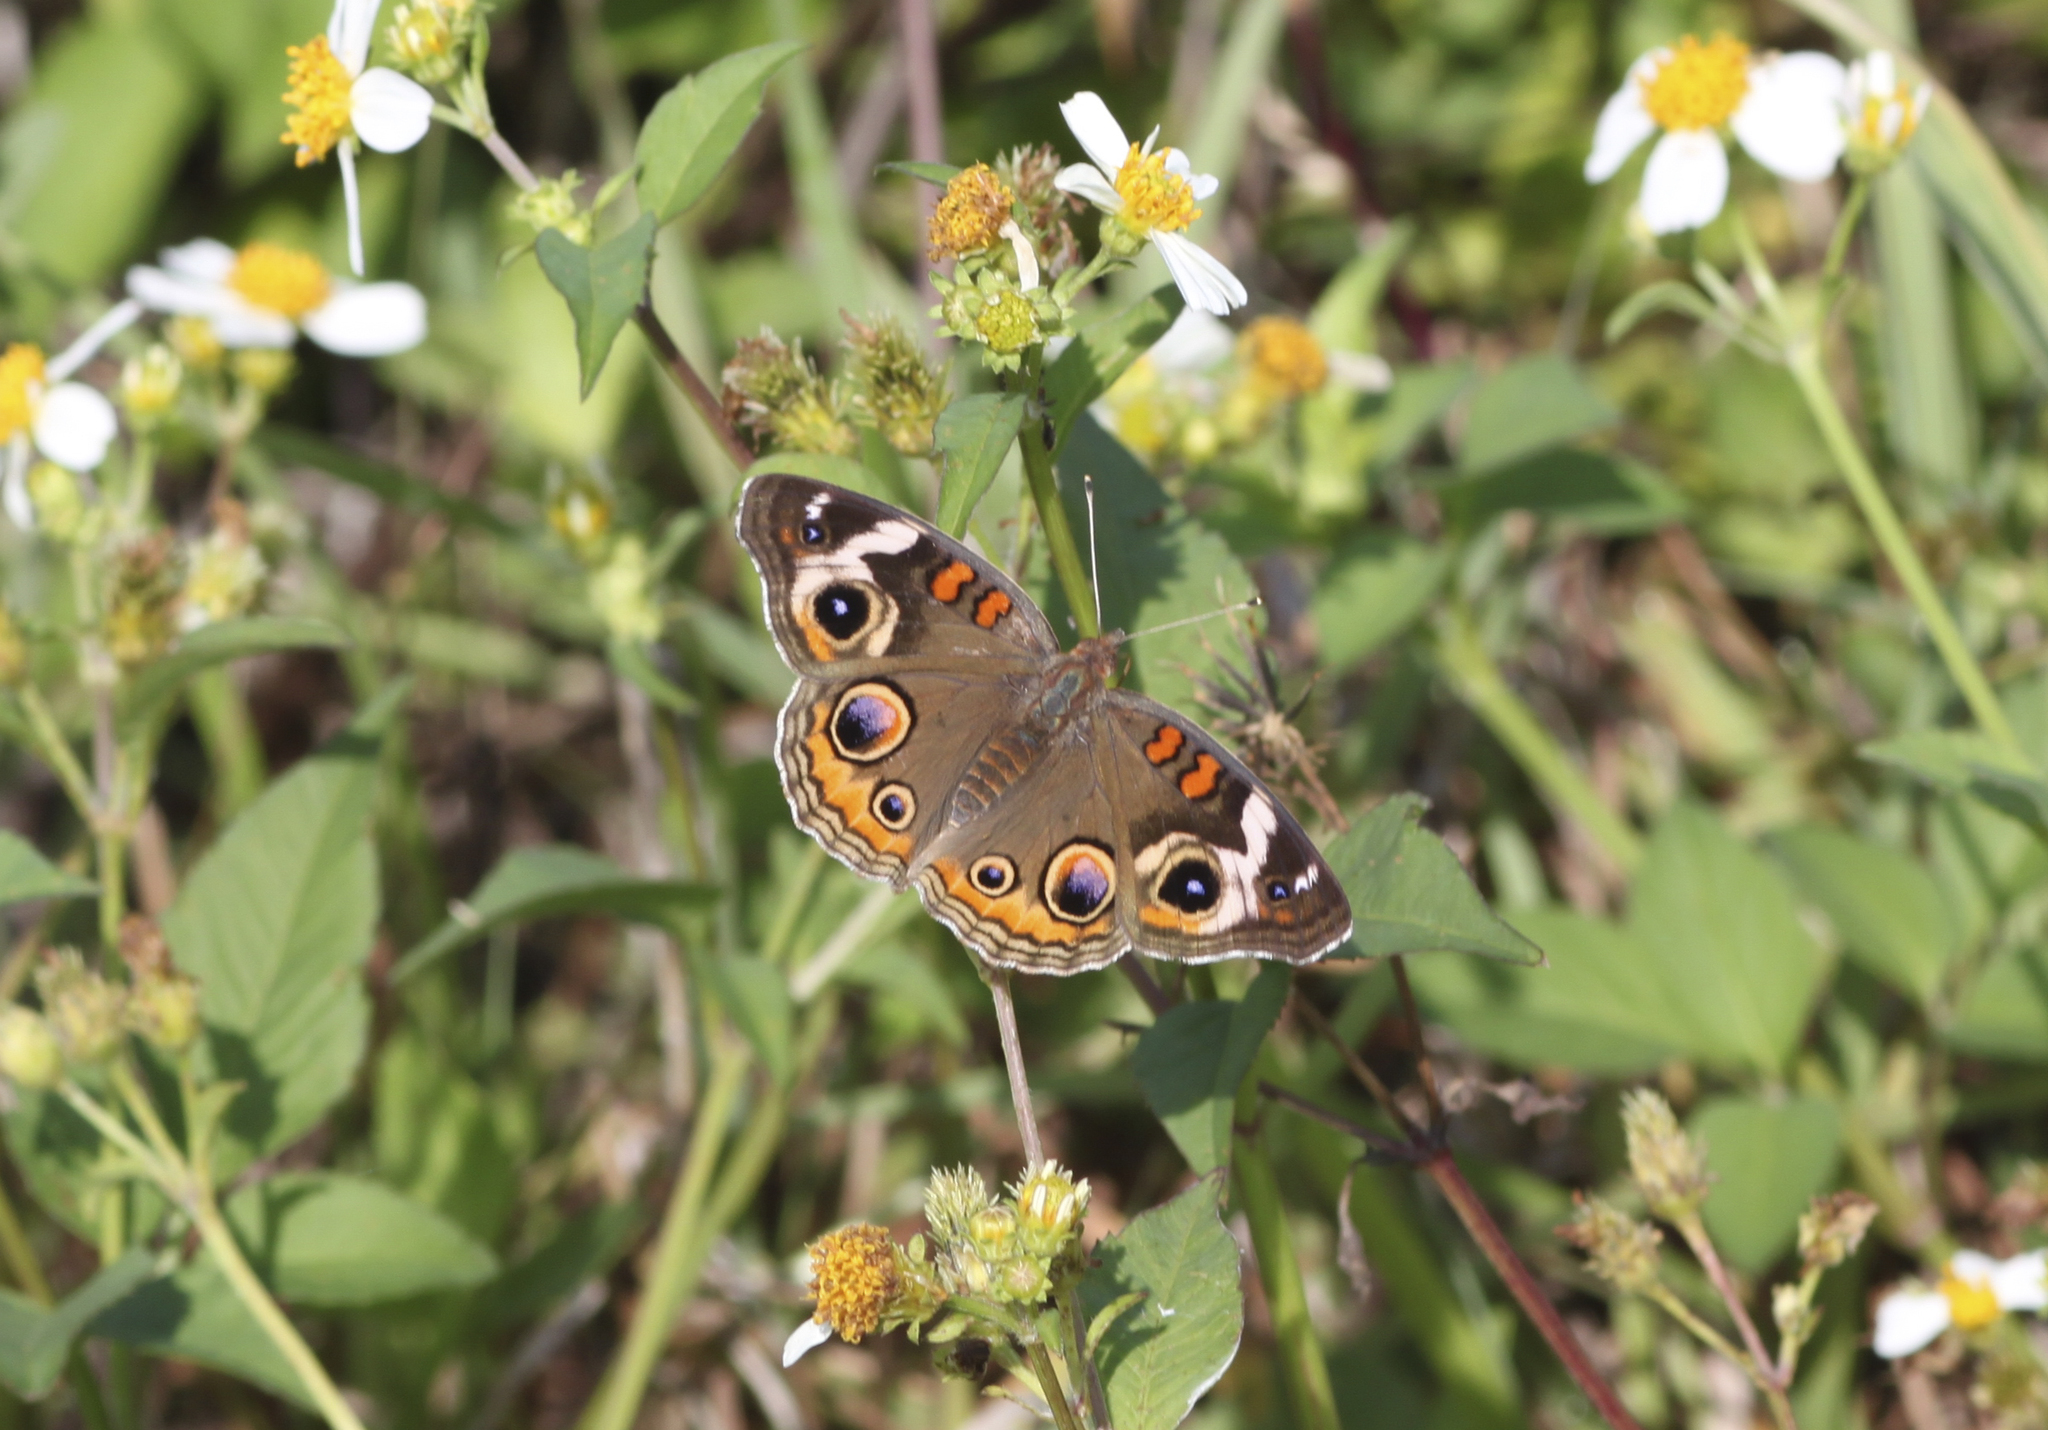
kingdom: Animalia
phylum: Arthropoda
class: Insecta
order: Lepidoptera
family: Nymphalidae
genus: Junonia
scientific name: Junonia coenia
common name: Common buckeye
